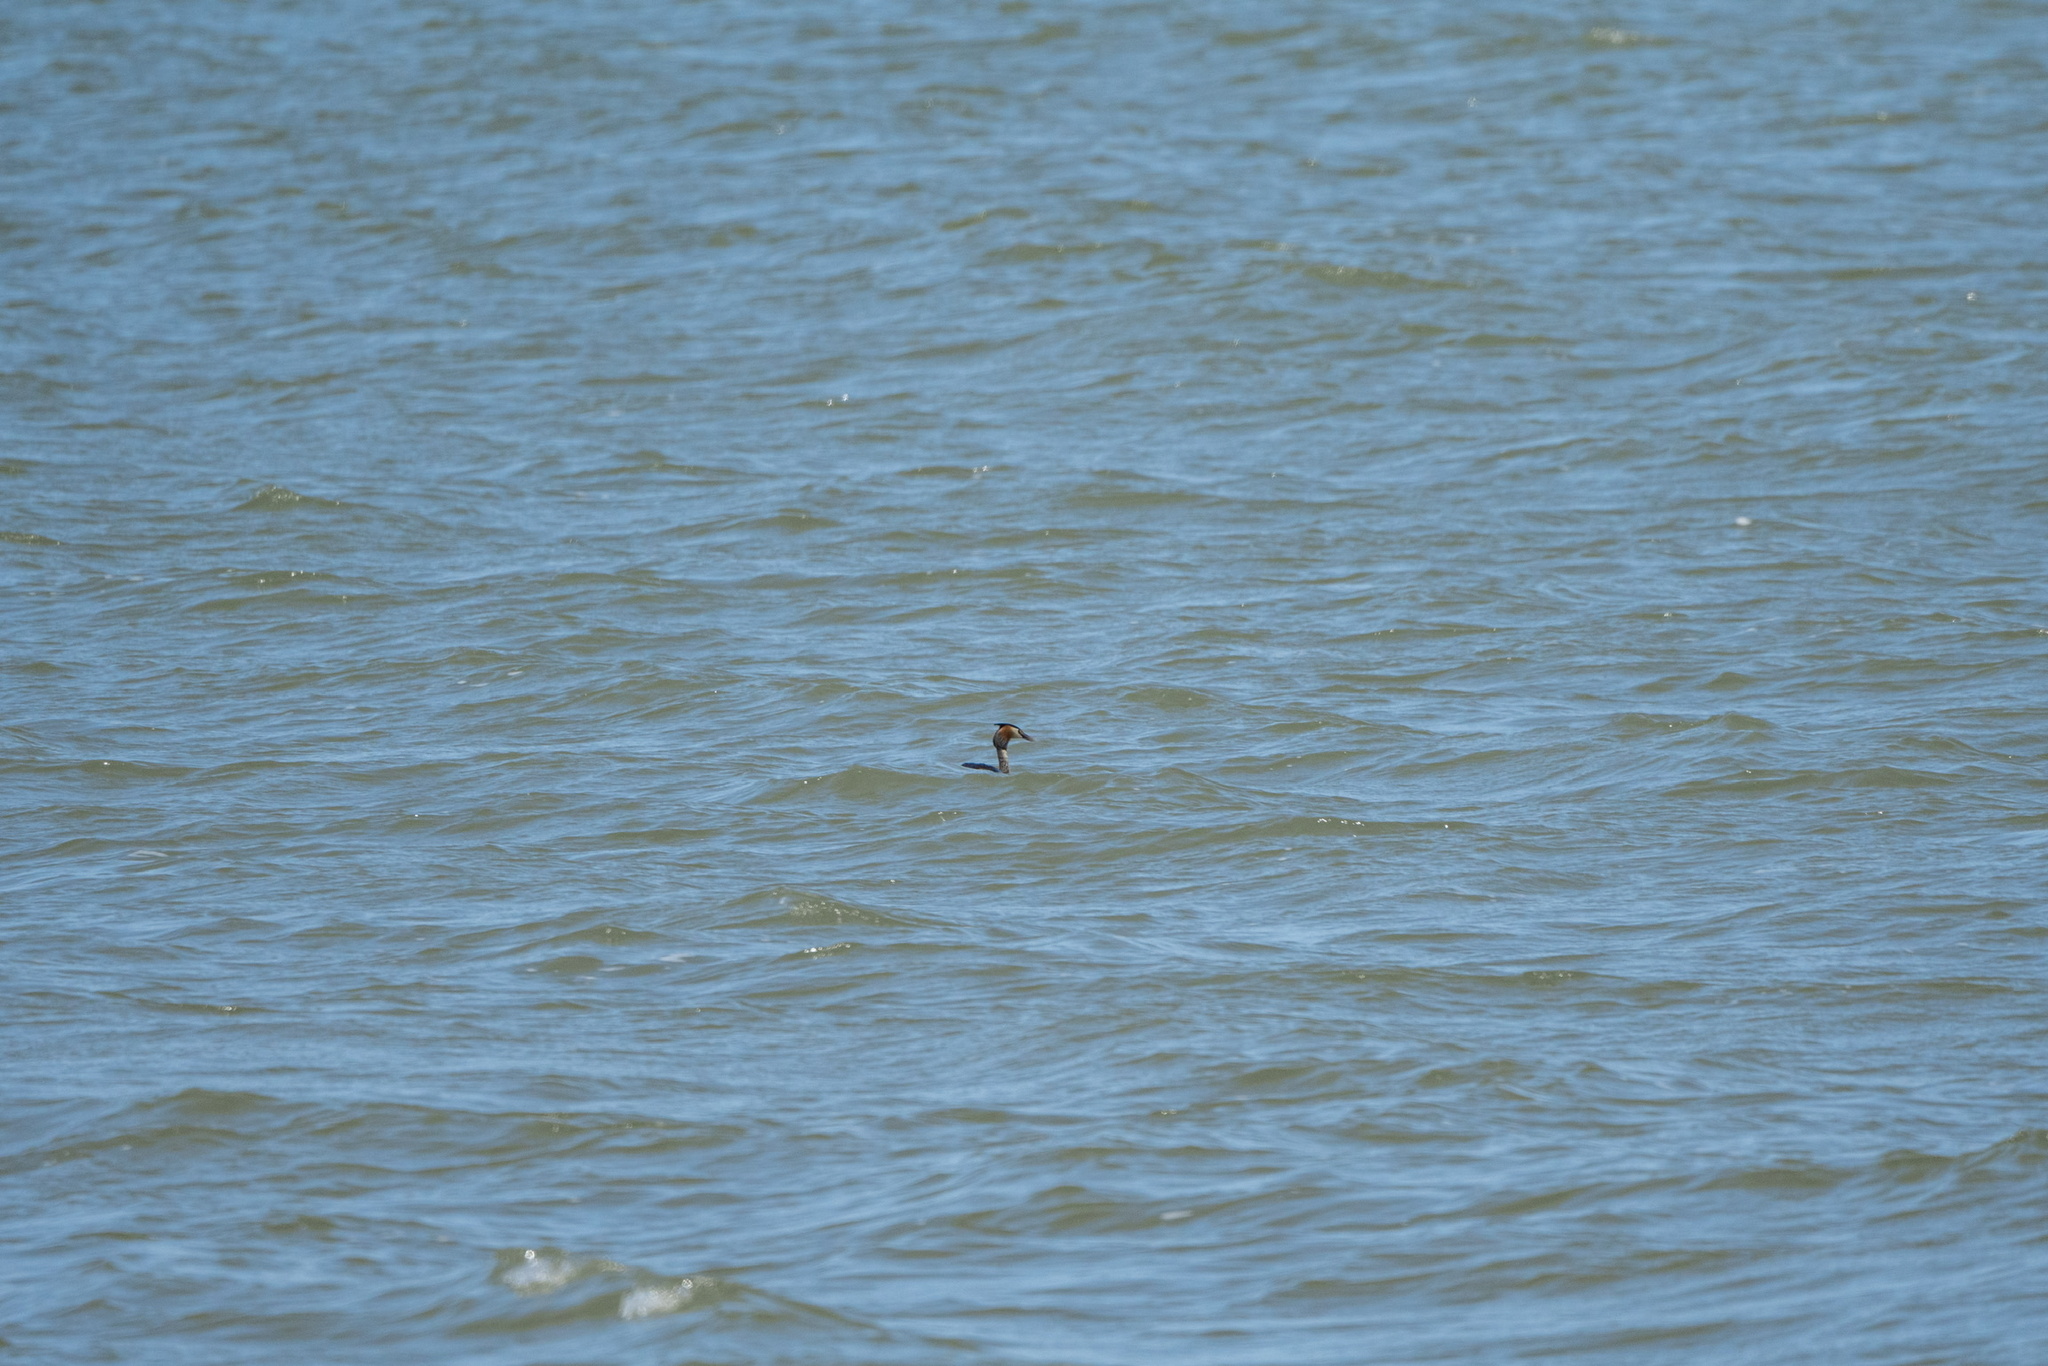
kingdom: Animalia
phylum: Chordata
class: Aves
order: Podicipediformes
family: Podicipedidae
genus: Podiceps
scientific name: Podiceps cristatus
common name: Great crested grebe
